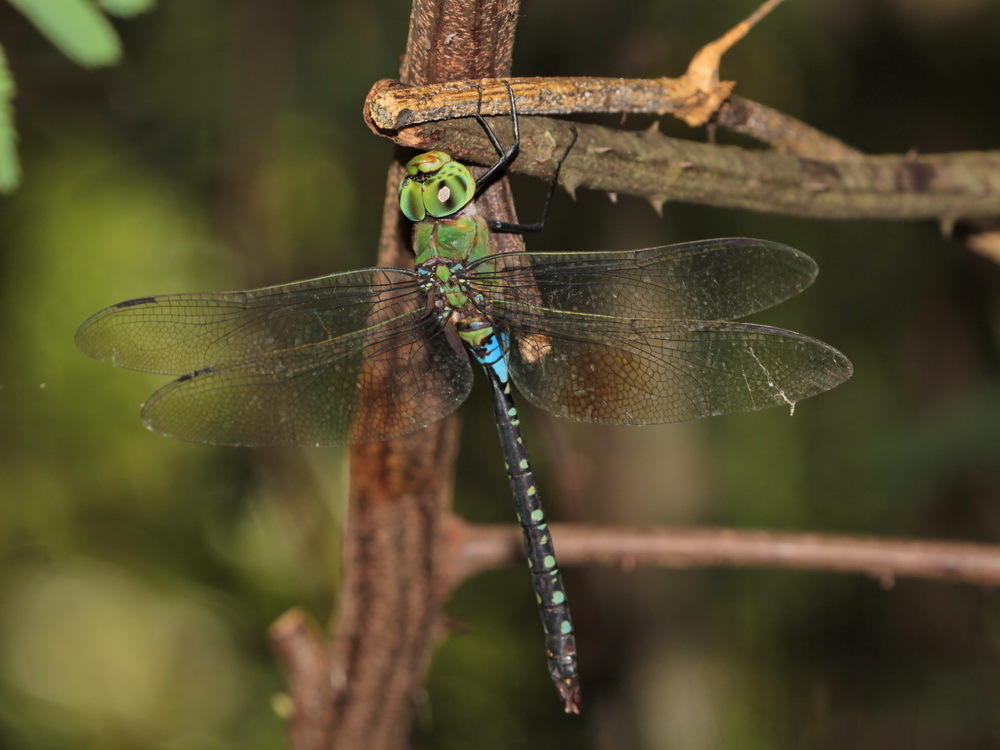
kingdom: Animalia
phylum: Arthropoda
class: Insecta
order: Odonata
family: Aeshnidae
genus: Anax
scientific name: Anax guttatus
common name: Emperor
